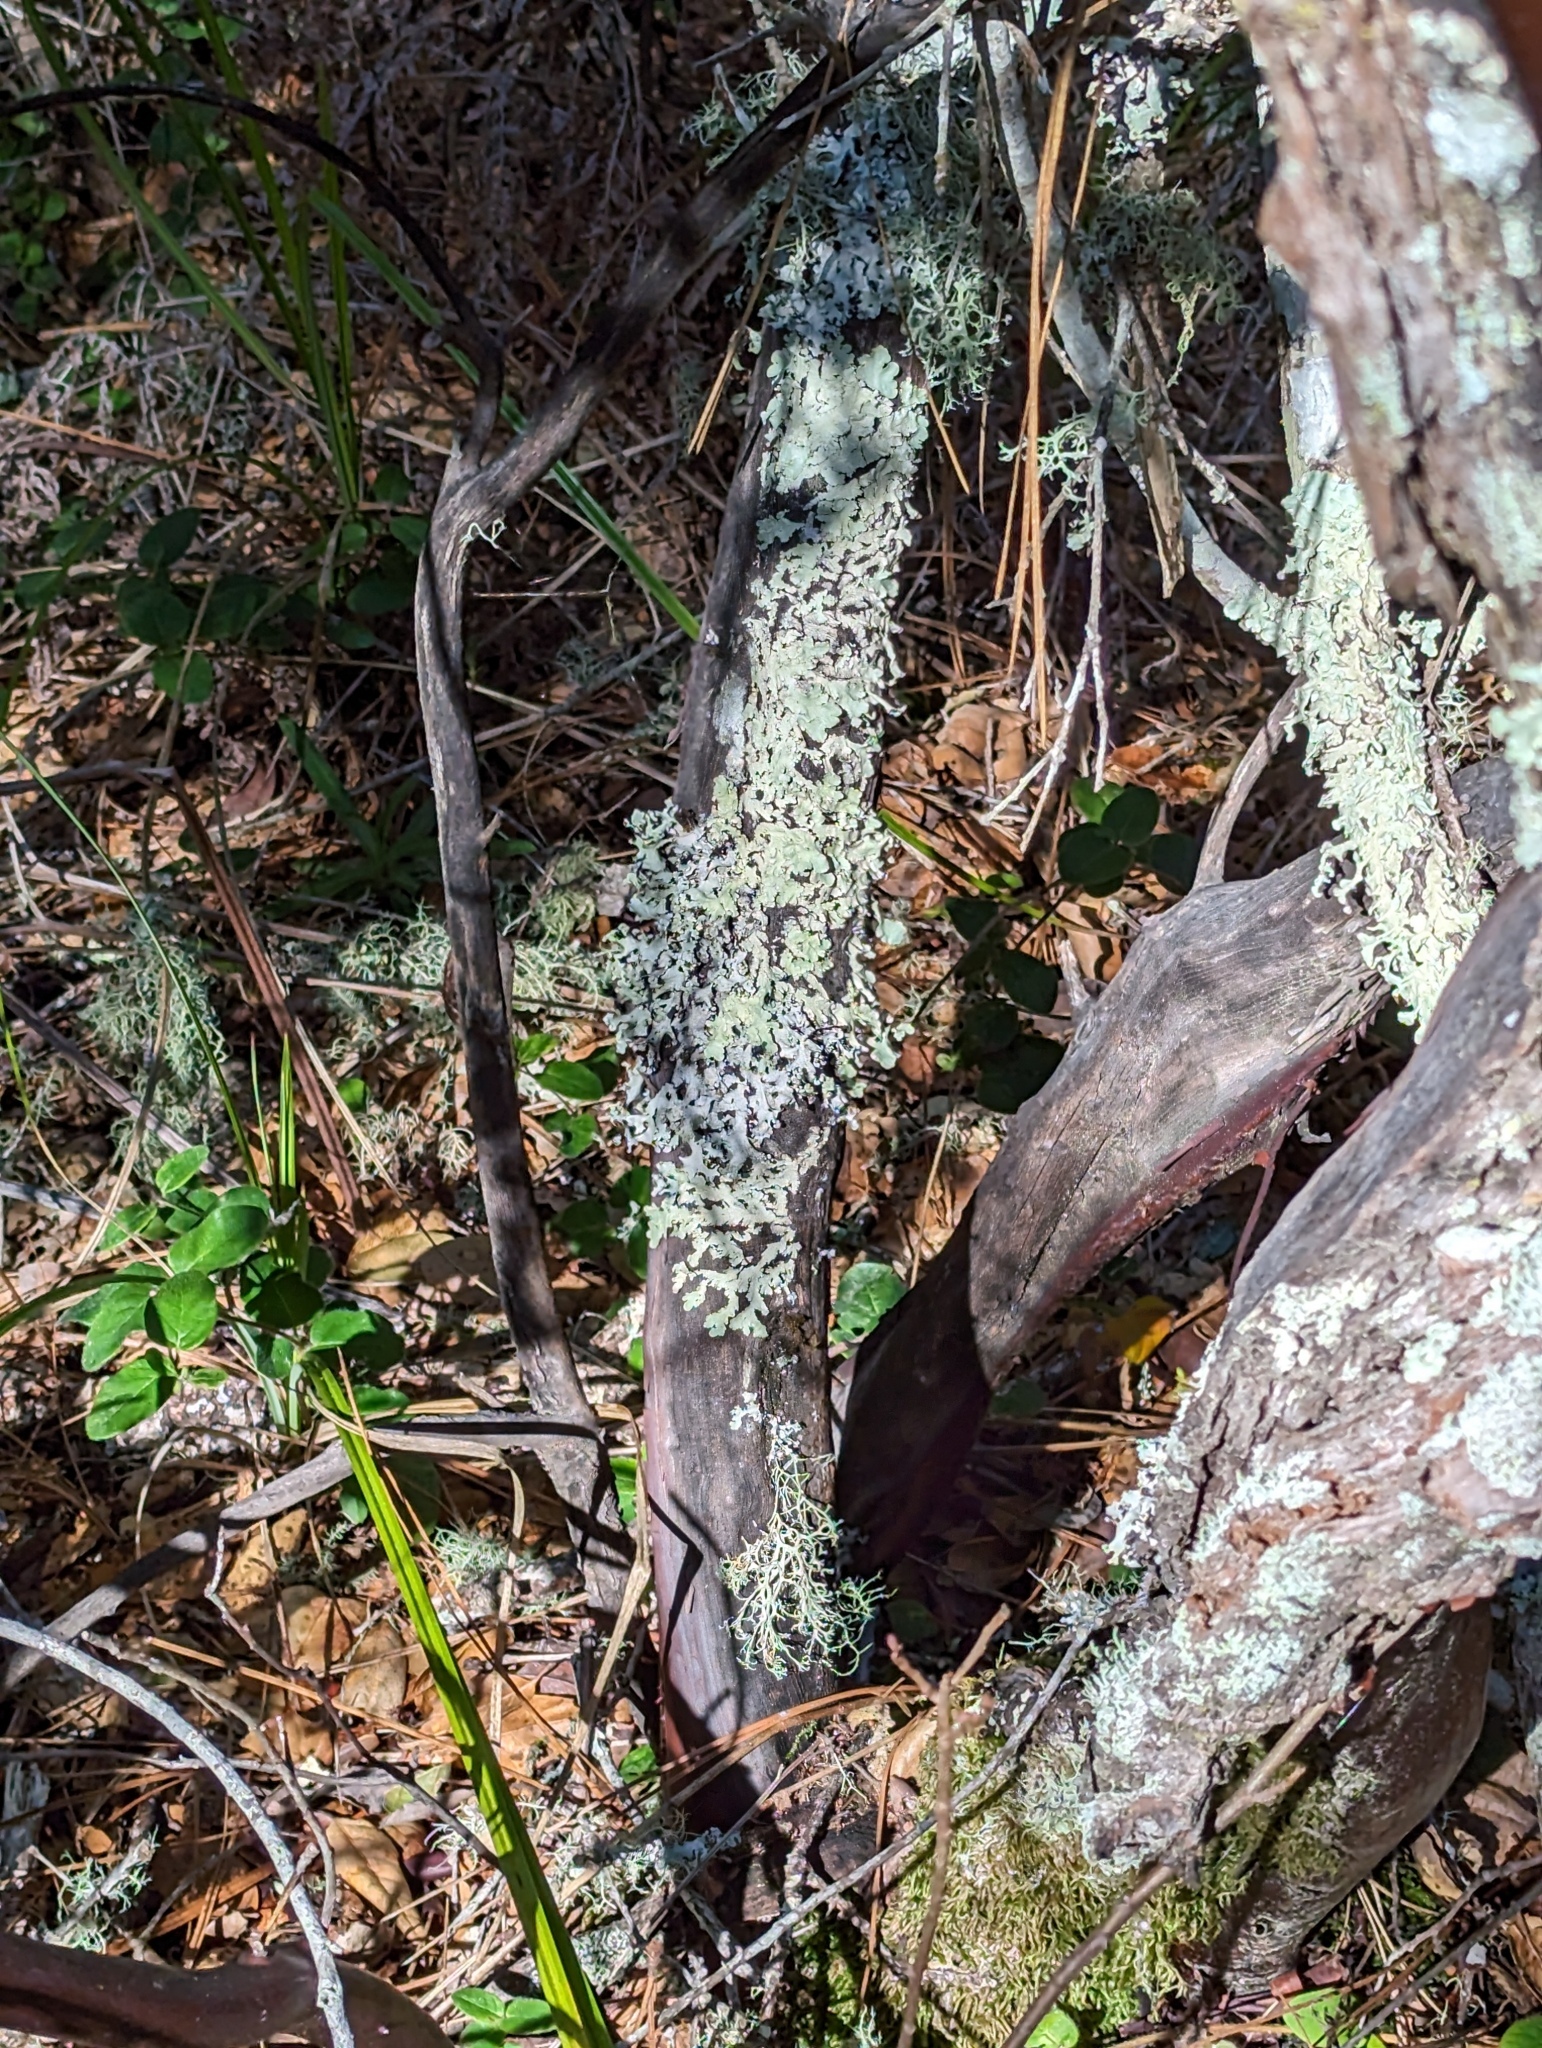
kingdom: Plantae
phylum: Tracheophyta
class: Magnoliopsida
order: Ericales
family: Ericaceae
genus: Arctostaphylos
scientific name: Arctostaphylos crustacea
